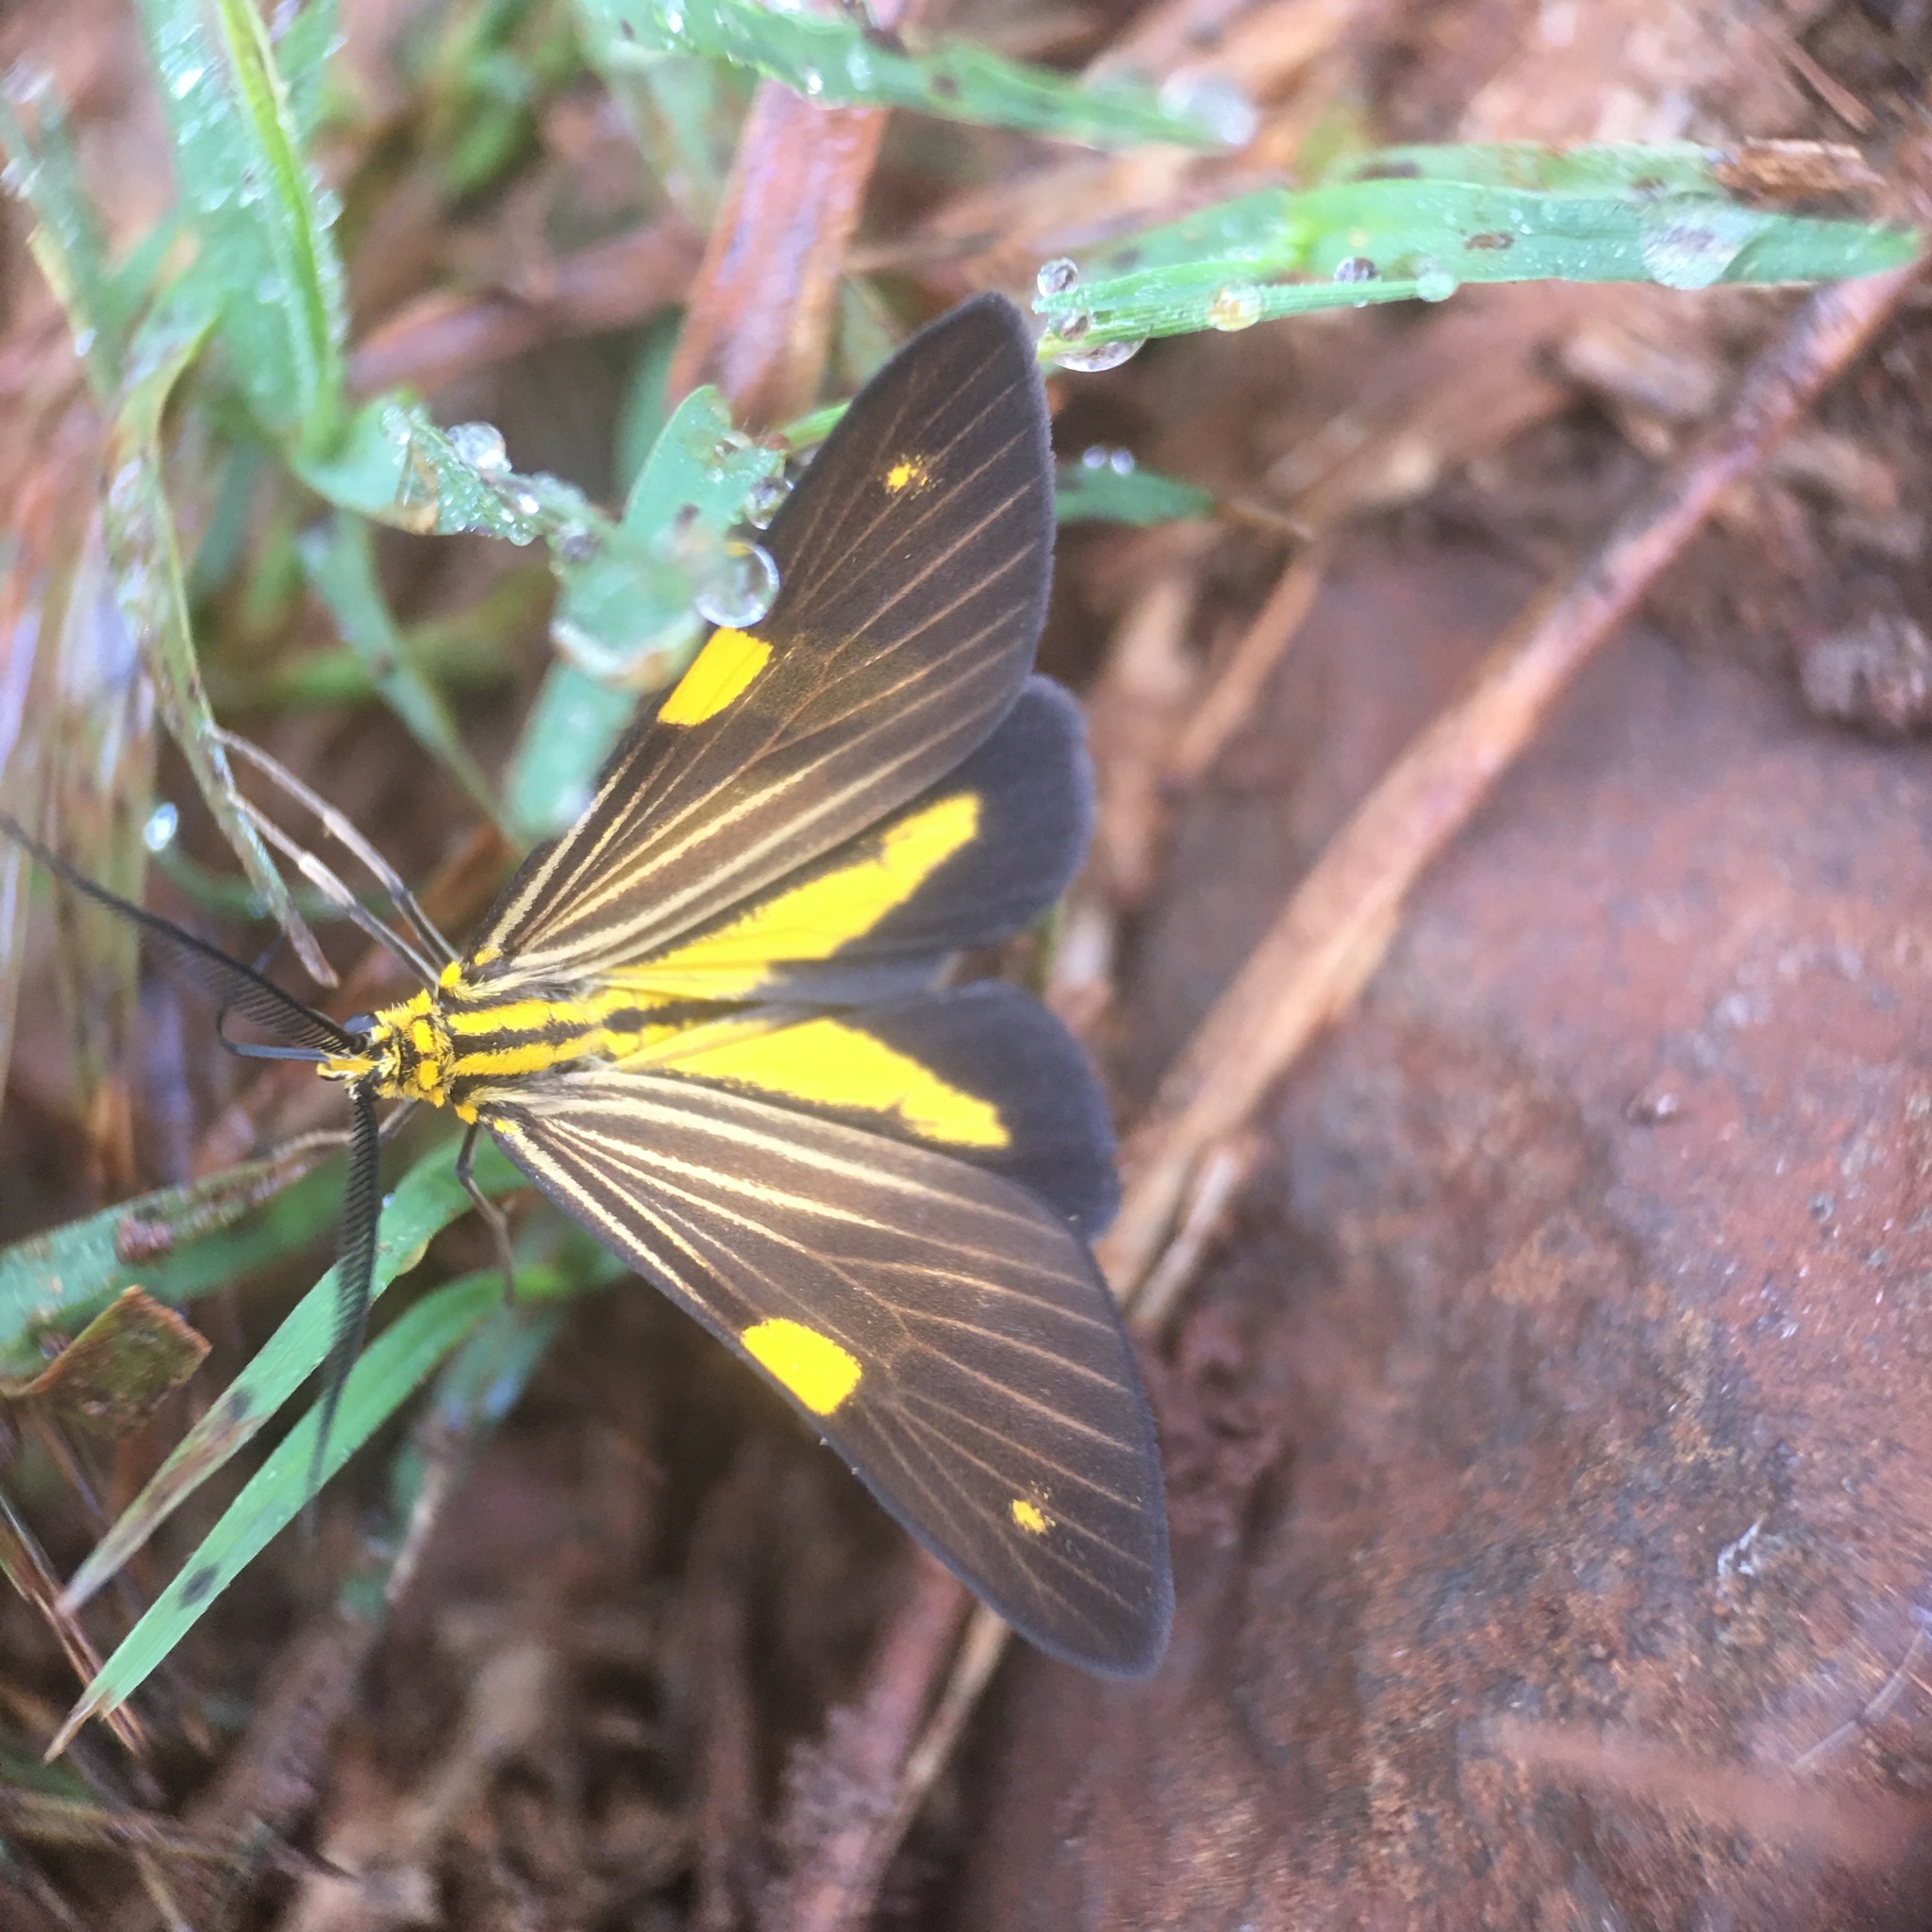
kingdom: Animalia
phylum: Arthropoda
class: Insecta
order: Lepidoptera
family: Notodontidae
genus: Phaeochlaena
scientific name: Phaeochlaena
